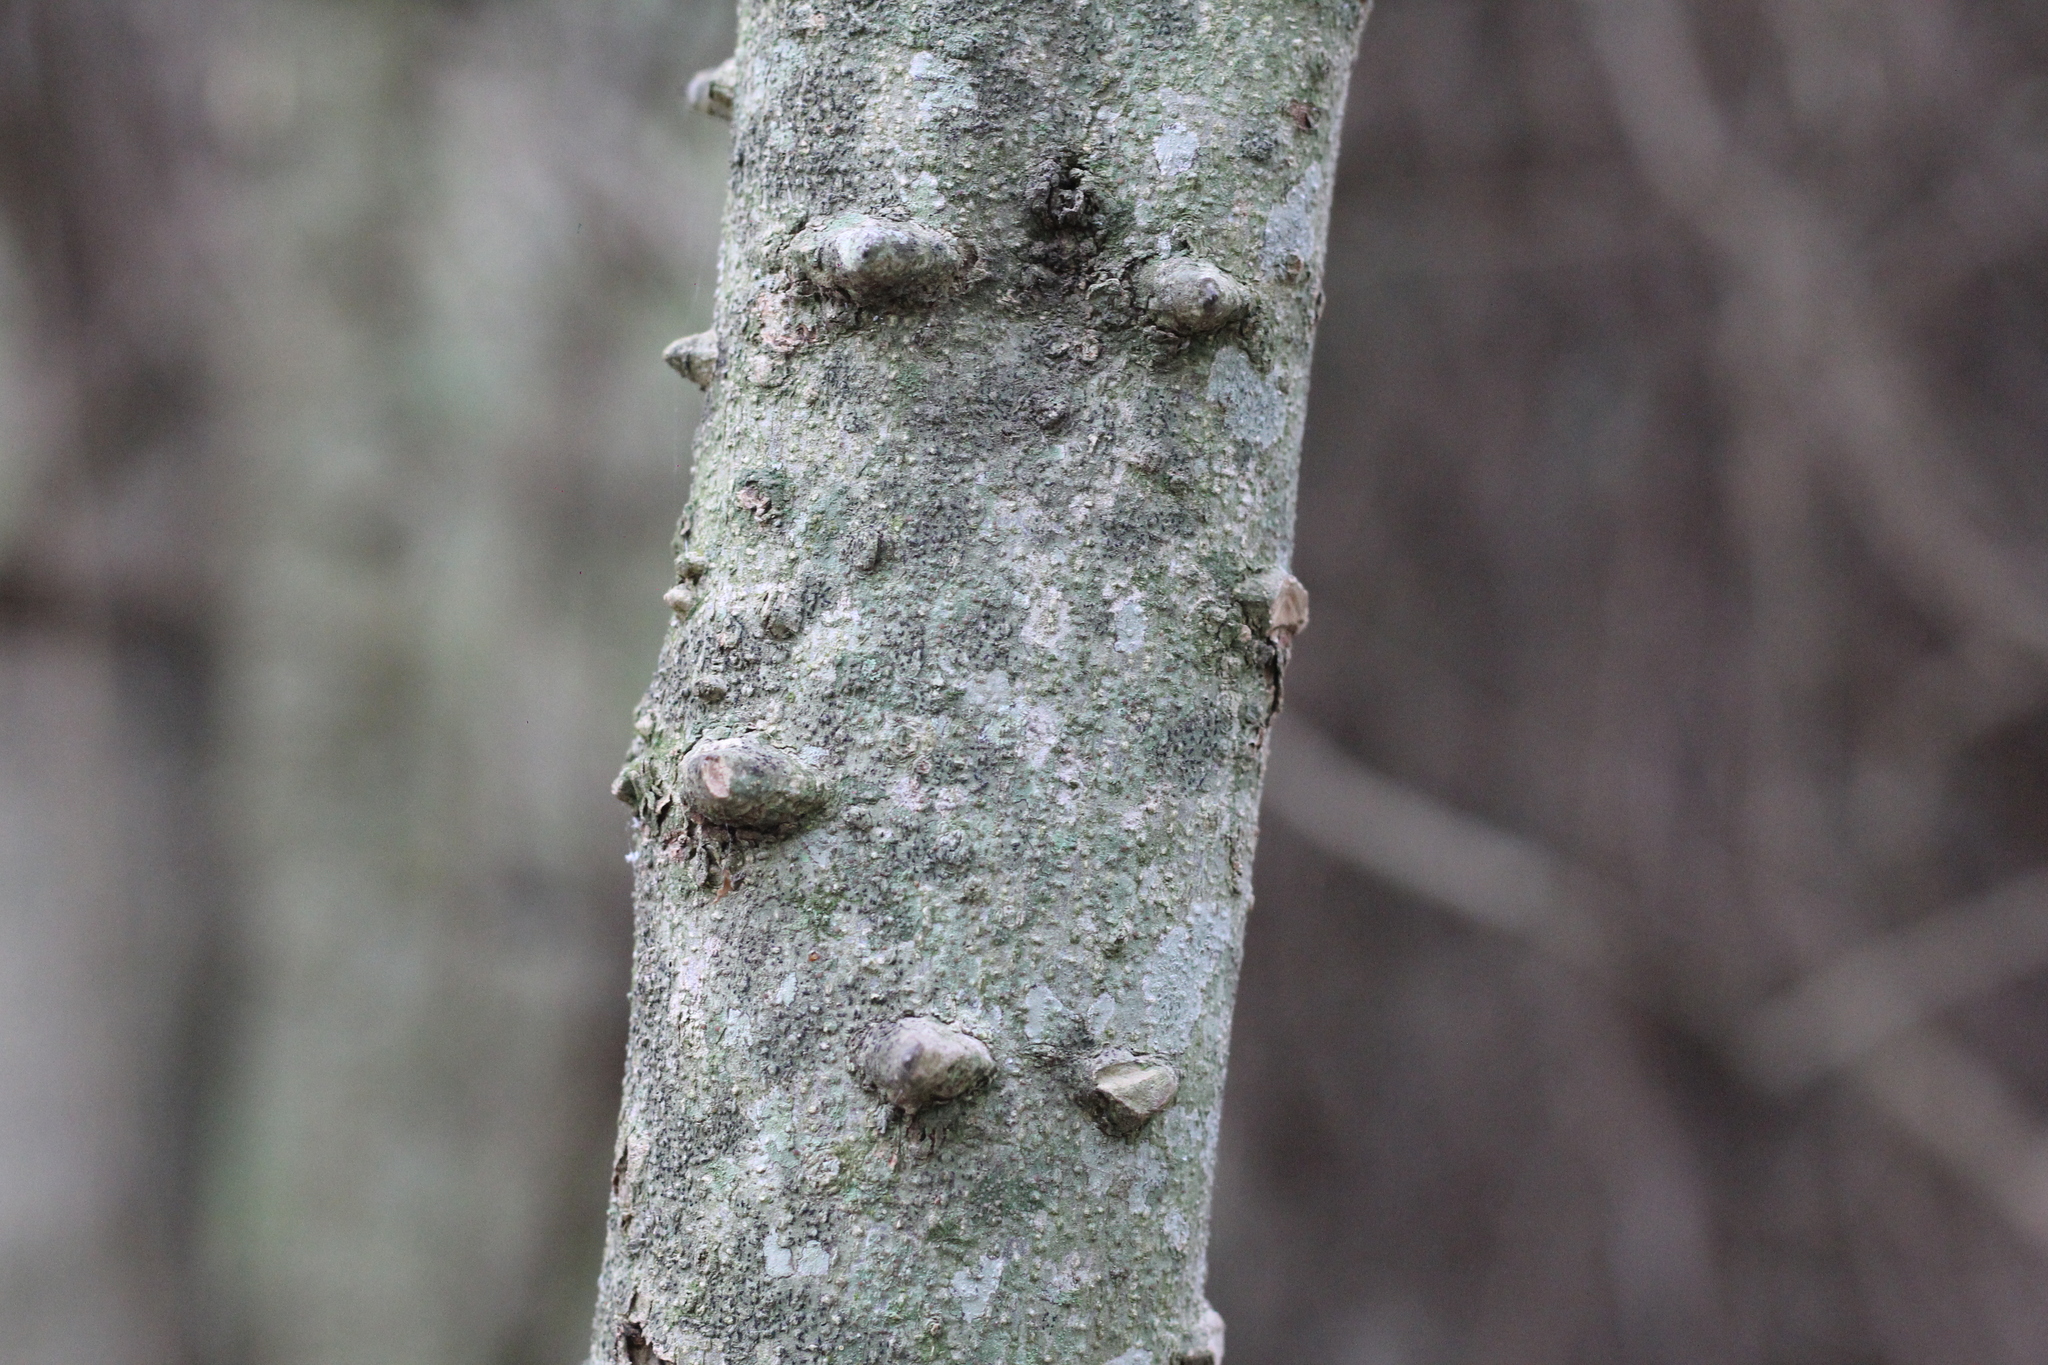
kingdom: Plantae
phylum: Tracheophyta
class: Magnoliopsida
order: Sapindales
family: Rutaceae
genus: Zanthoxylum
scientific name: Zanthoxylum fagara
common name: Lime prickly-ash
